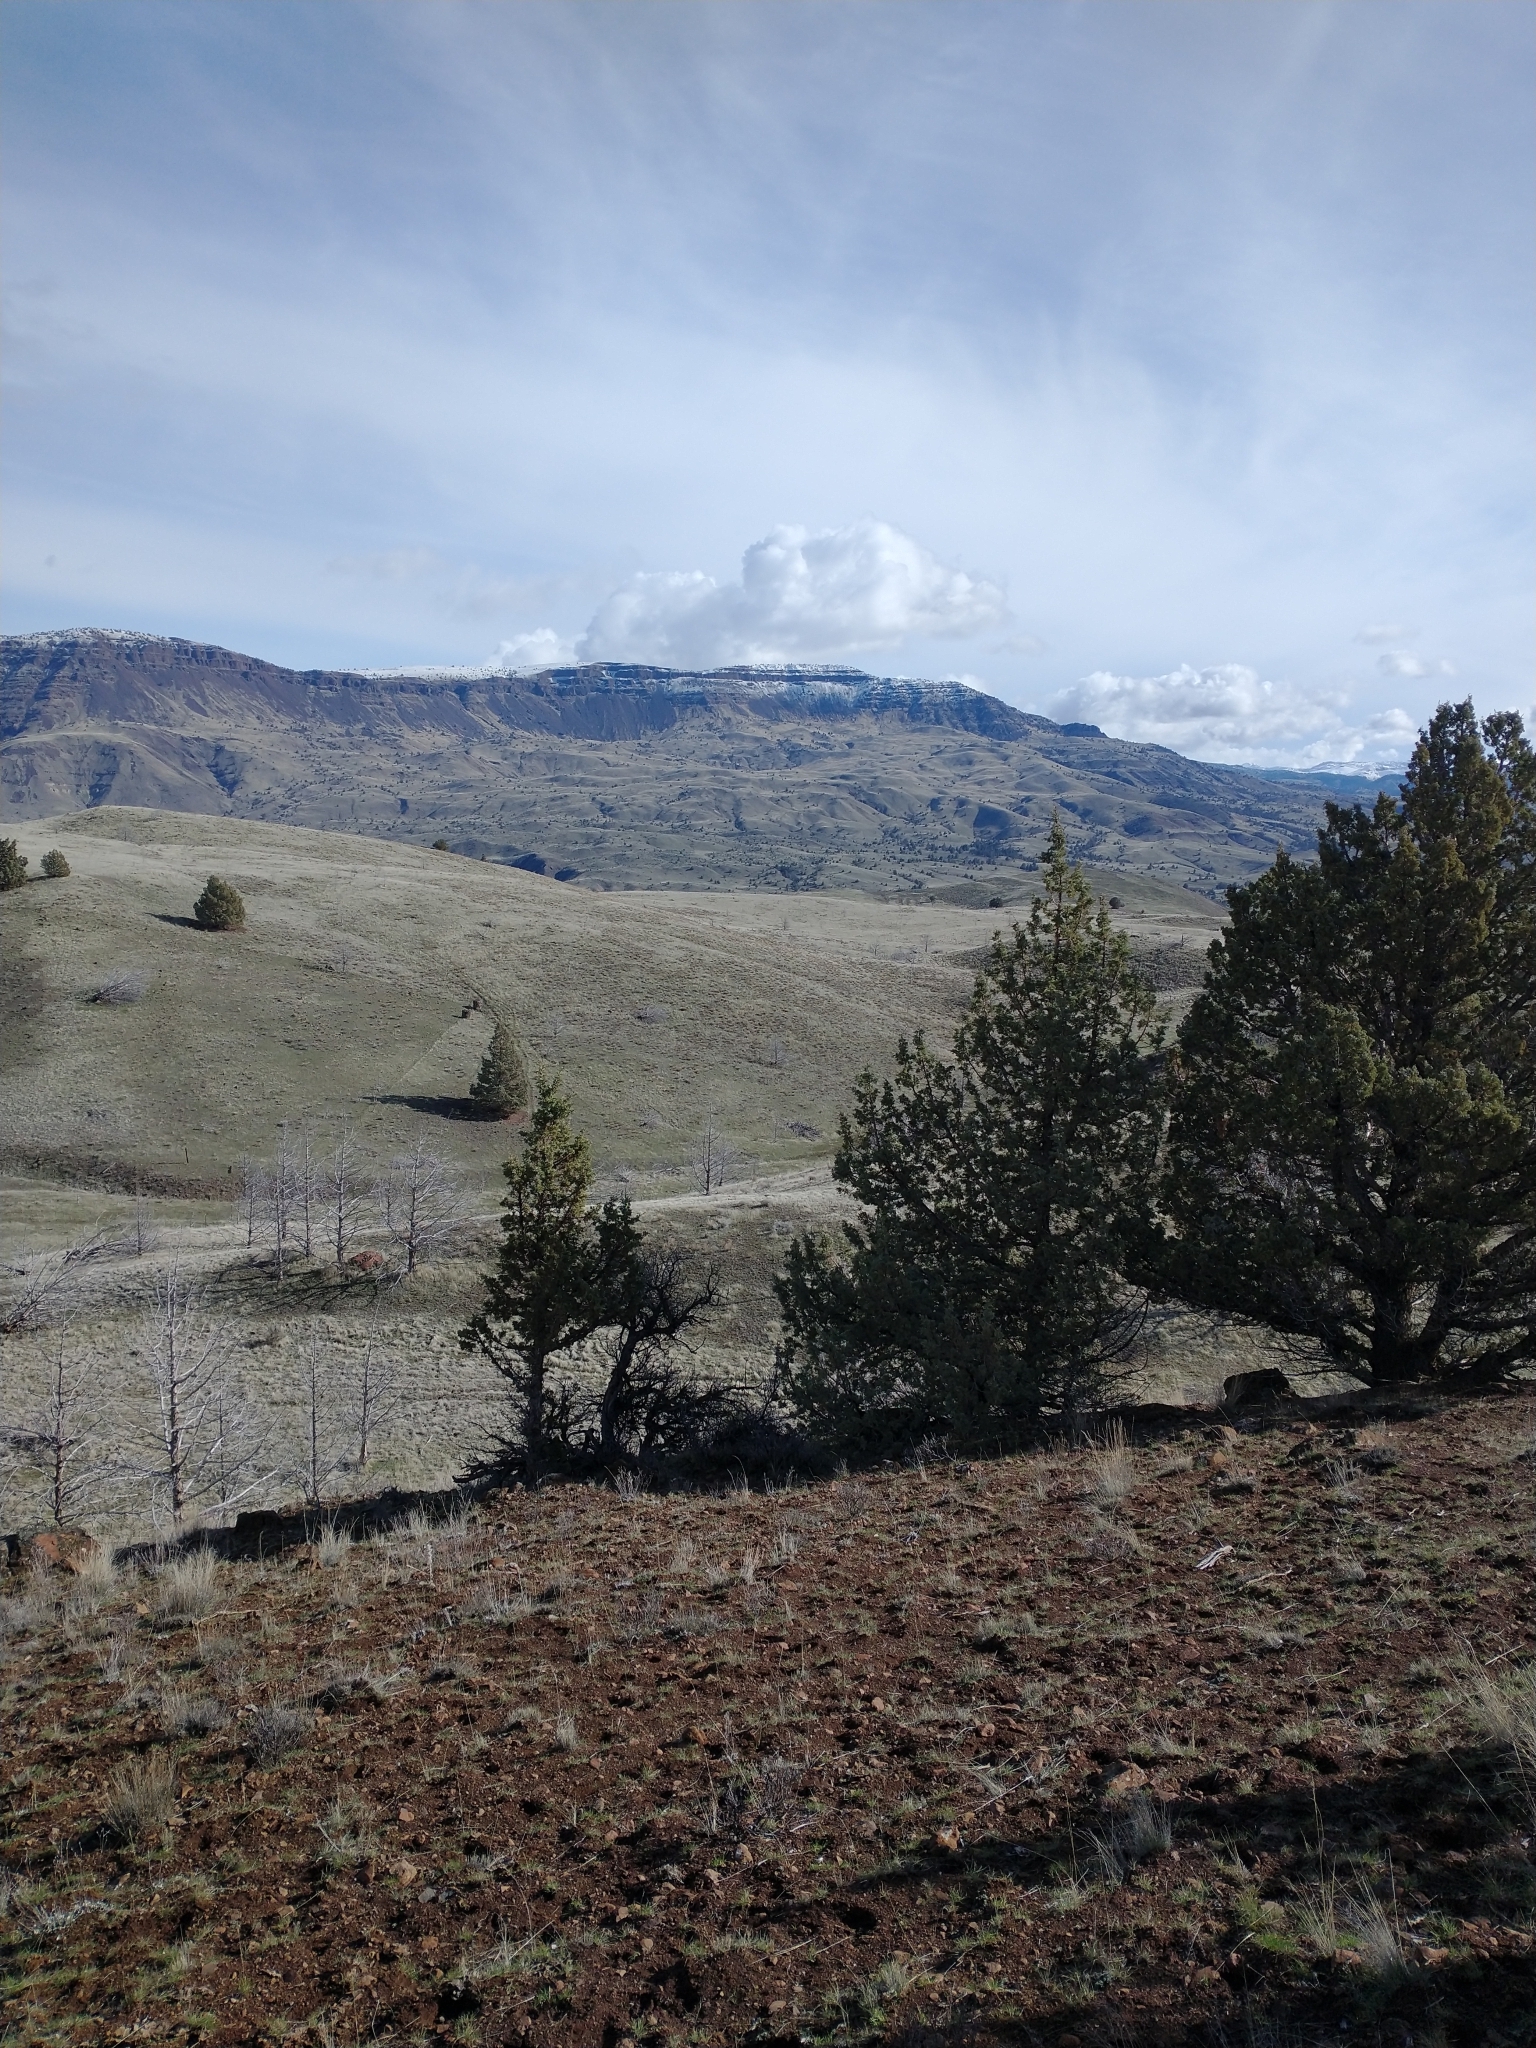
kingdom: Plantae
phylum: Tracheophyta
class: Pinopsida
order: Pinales
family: Cupressaceae
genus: Juniperus
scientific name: Juniperus occidentalis
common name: Western juniper
